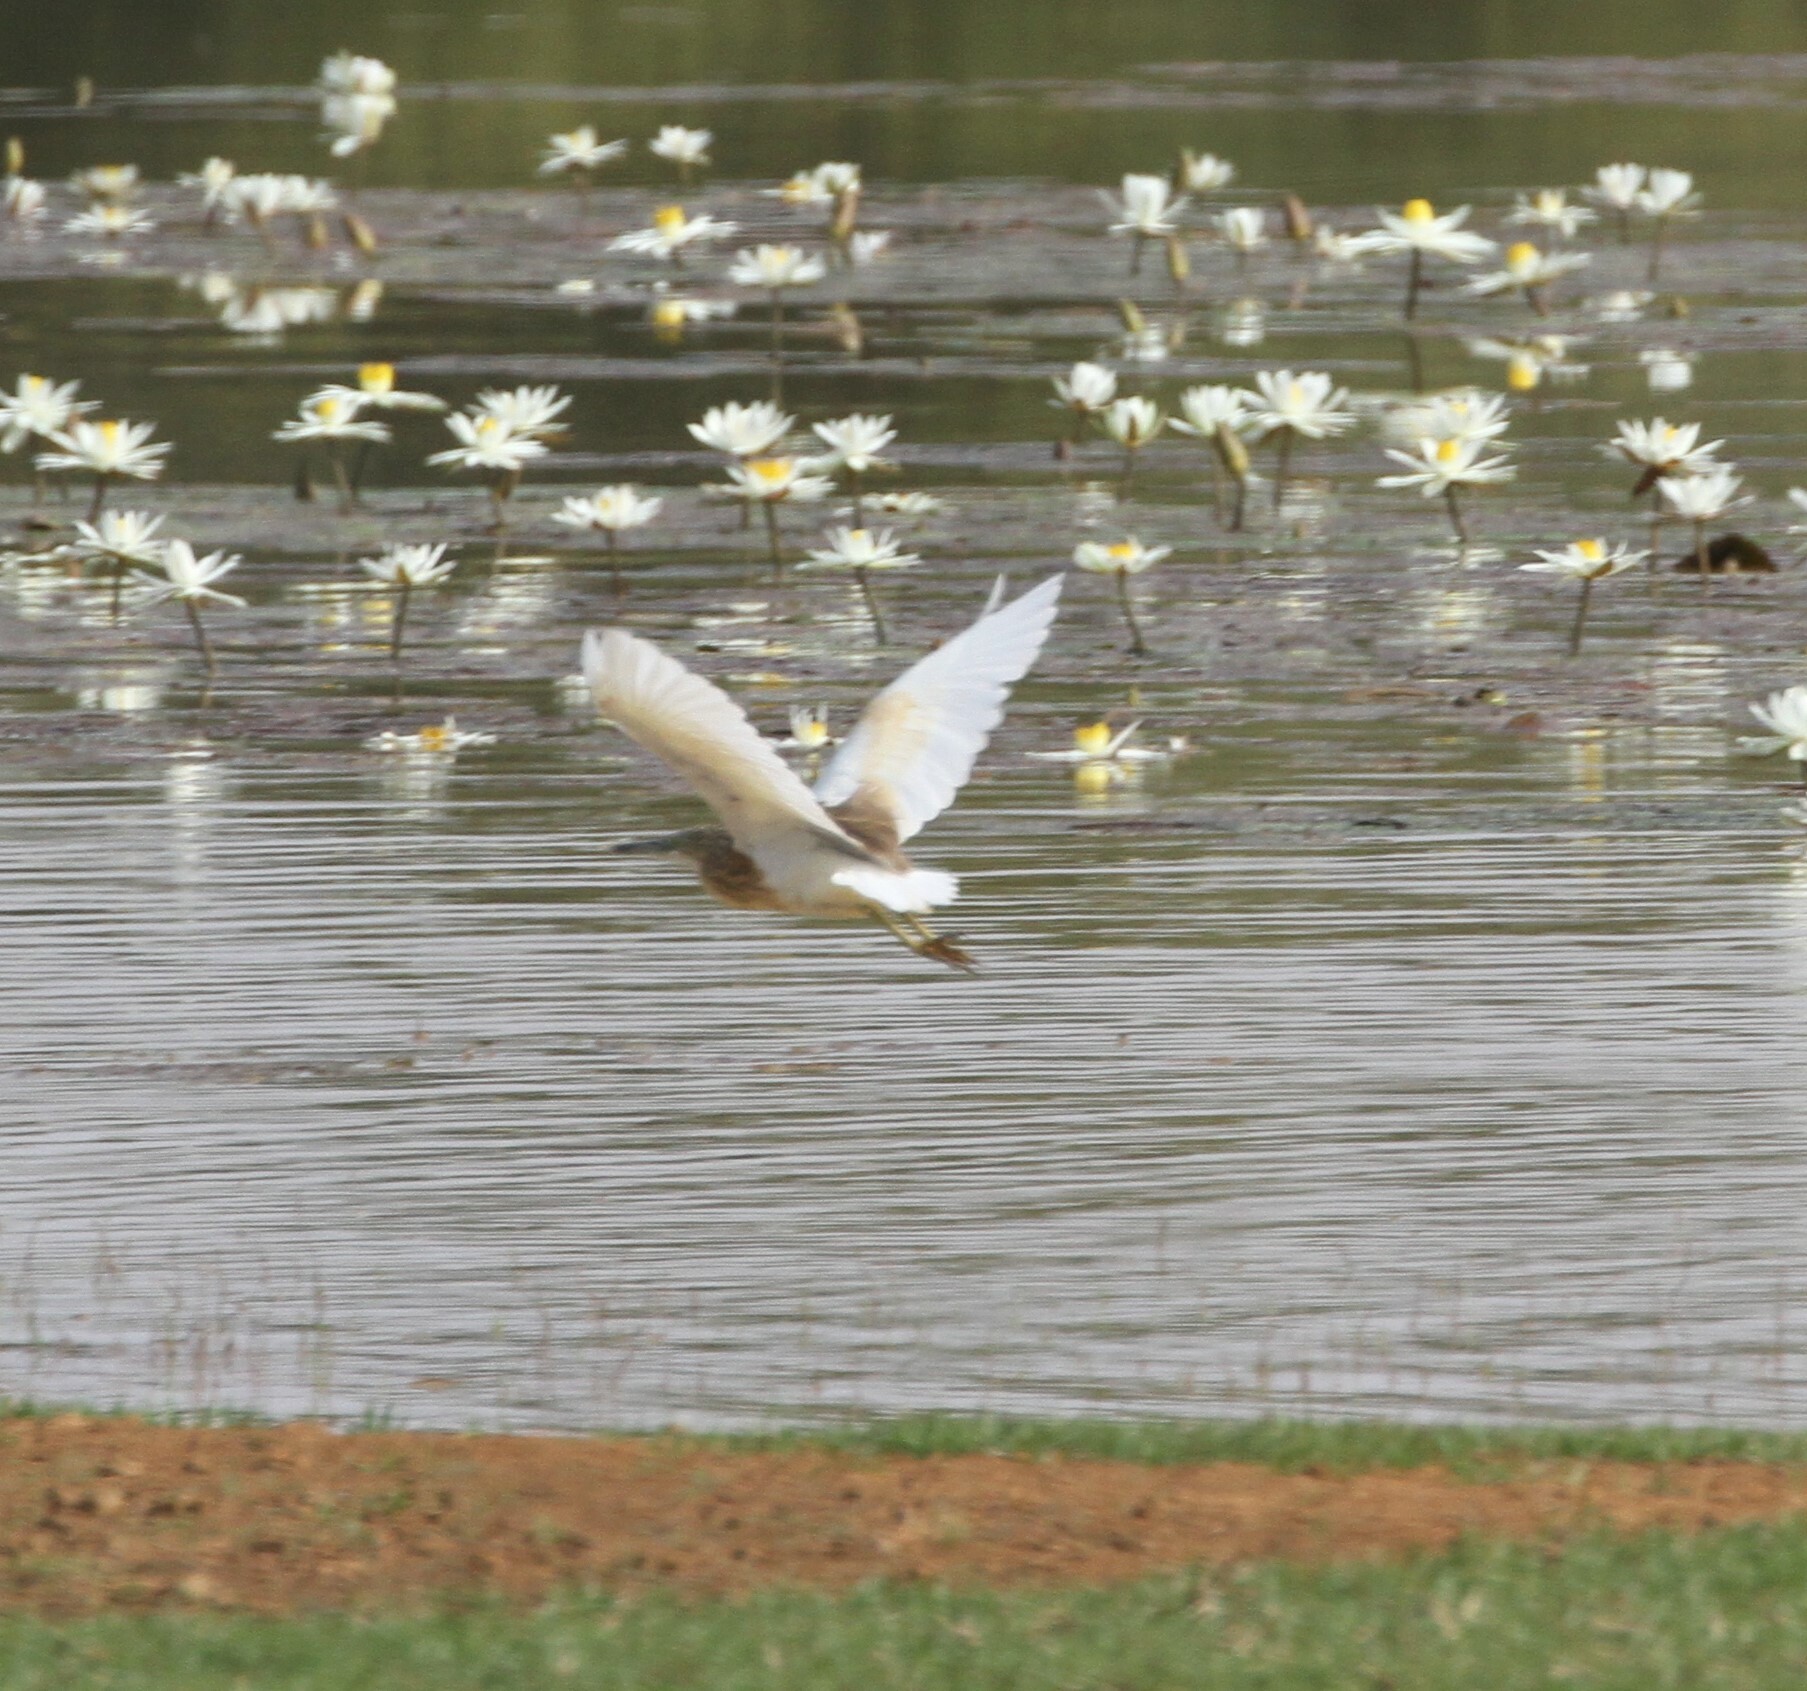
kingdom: Animalia
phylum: Chordata
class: Aves
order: Pelecaniformes
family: Ardeidae
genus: Ardeola
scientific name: Ardeola ralloides
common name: Squacco heron
